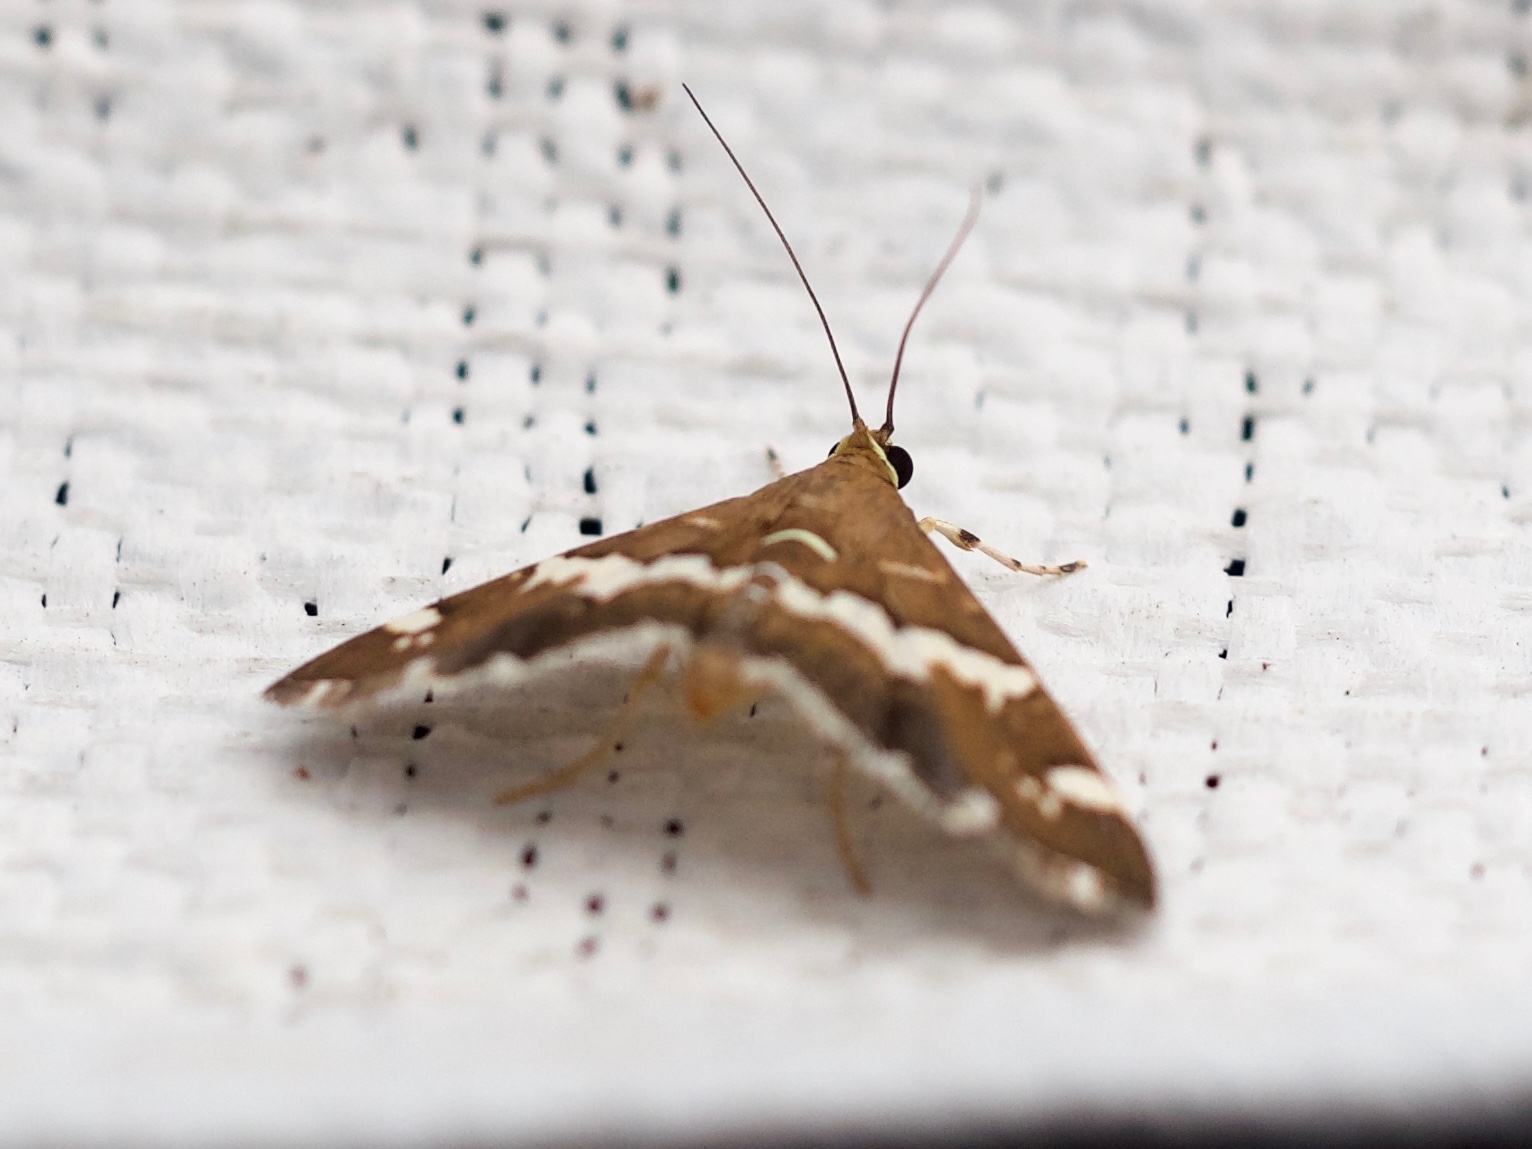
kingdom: Animalia
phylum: Arthropoda
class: Insecta
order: Lepidoptera
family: Crambidae
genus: Spoladea
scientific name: Spoladea recurvalis
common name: Beet webworm moth
